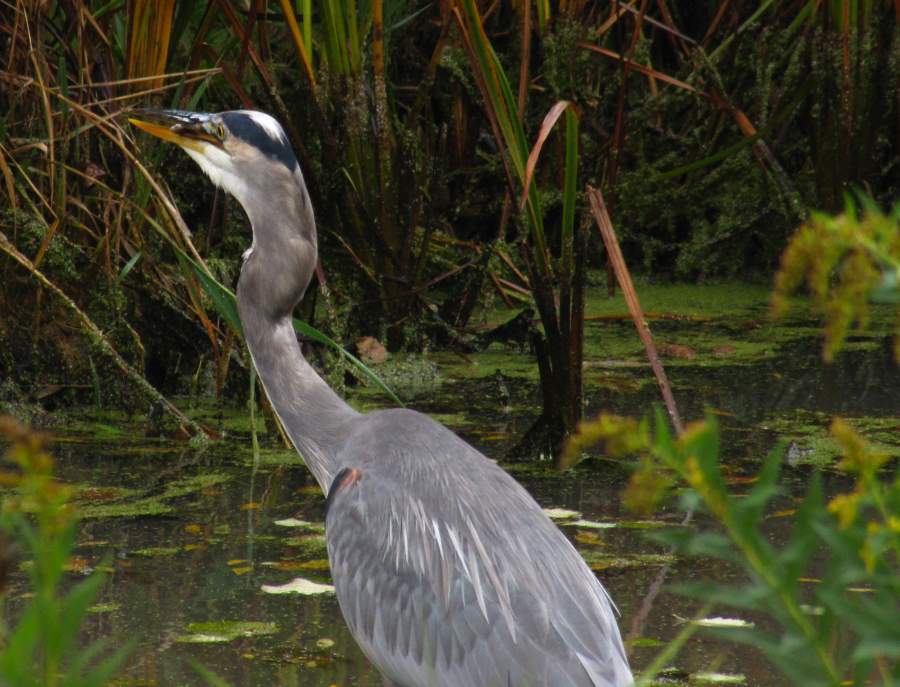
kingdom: Animalia
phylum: Chordata
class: Aves
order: Pelecaniformes
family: Ardeidae
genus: Ardea
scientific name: Ardea herodias
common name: Great blue heron
